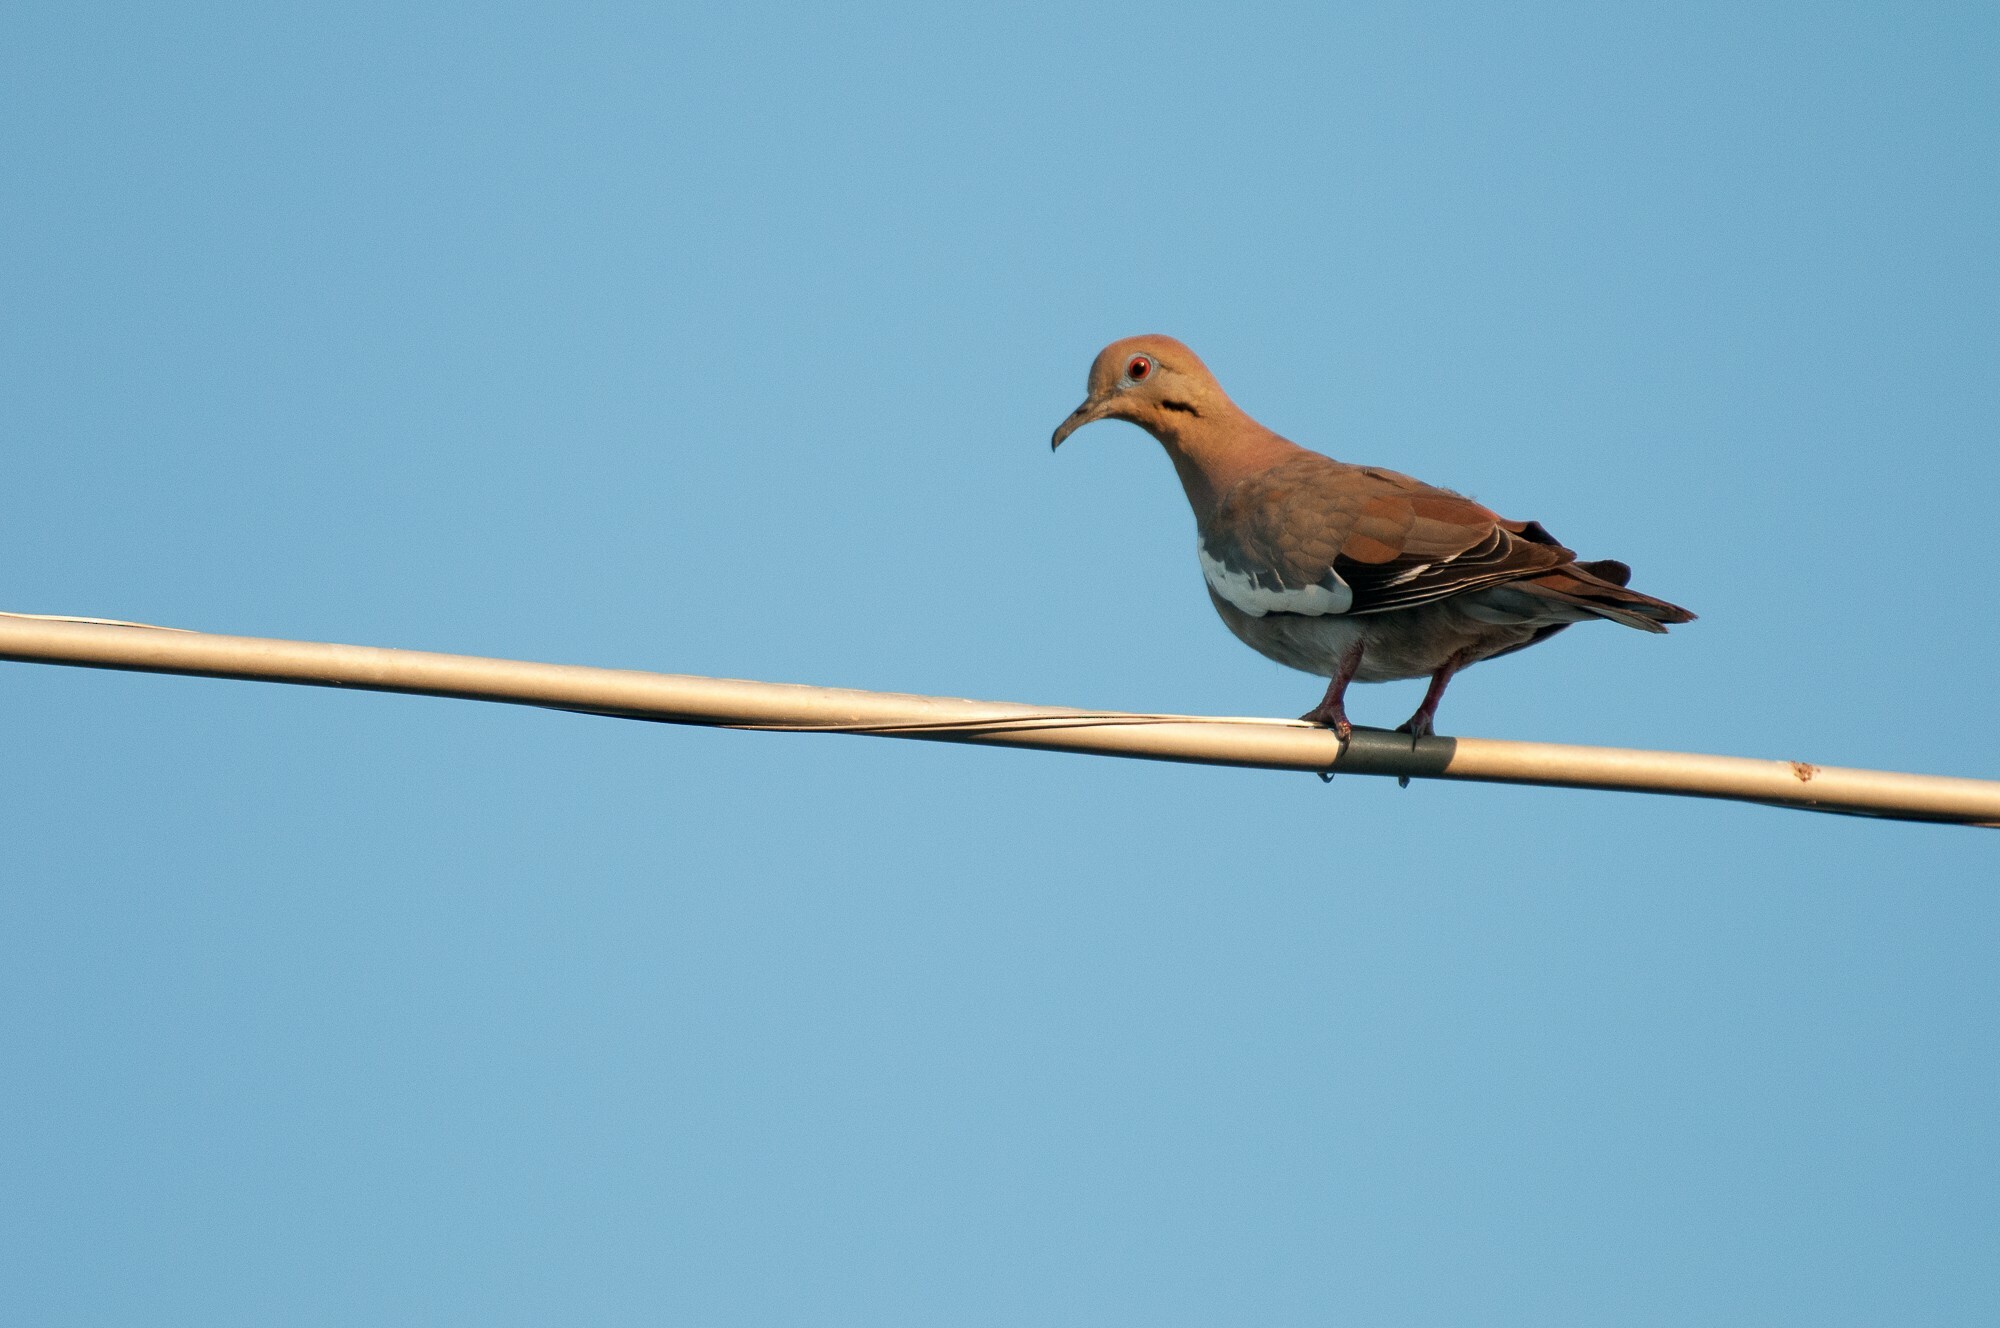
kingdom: Animalia
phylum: Chordata
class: Aves
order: Columbiformes
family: Columbidae
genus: Zenaida
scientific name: Zenaida asiatica
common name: White-winged dove
